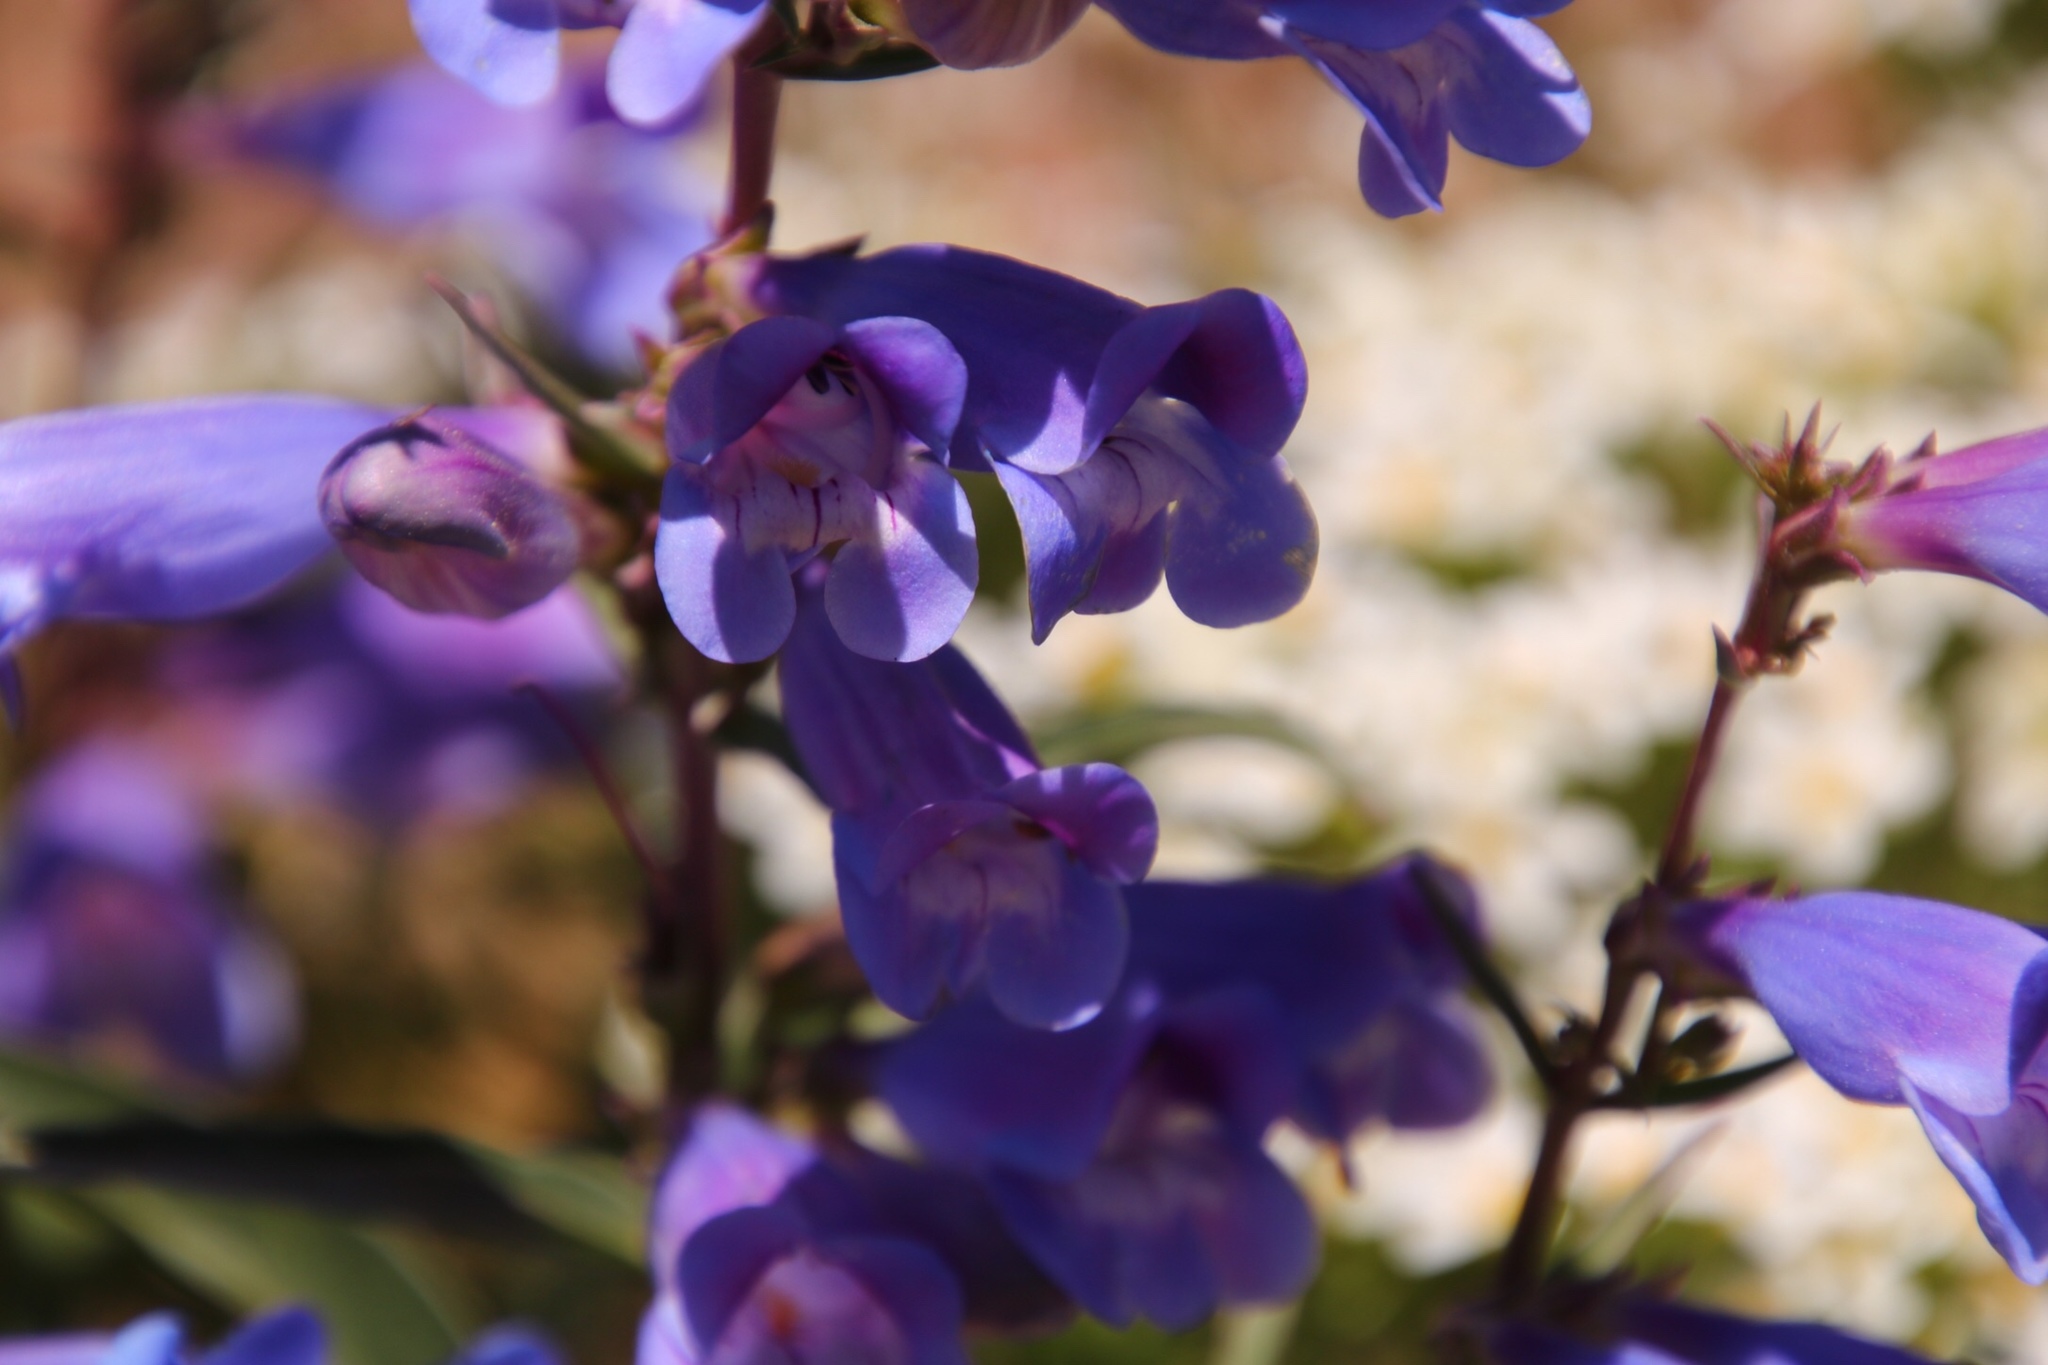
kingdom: Plantae
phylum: Tracheophyta
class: Magnoliopsida
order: Lamiales
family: Plantaginaceae
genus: Penstemon
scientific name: Penstemon speciosus
